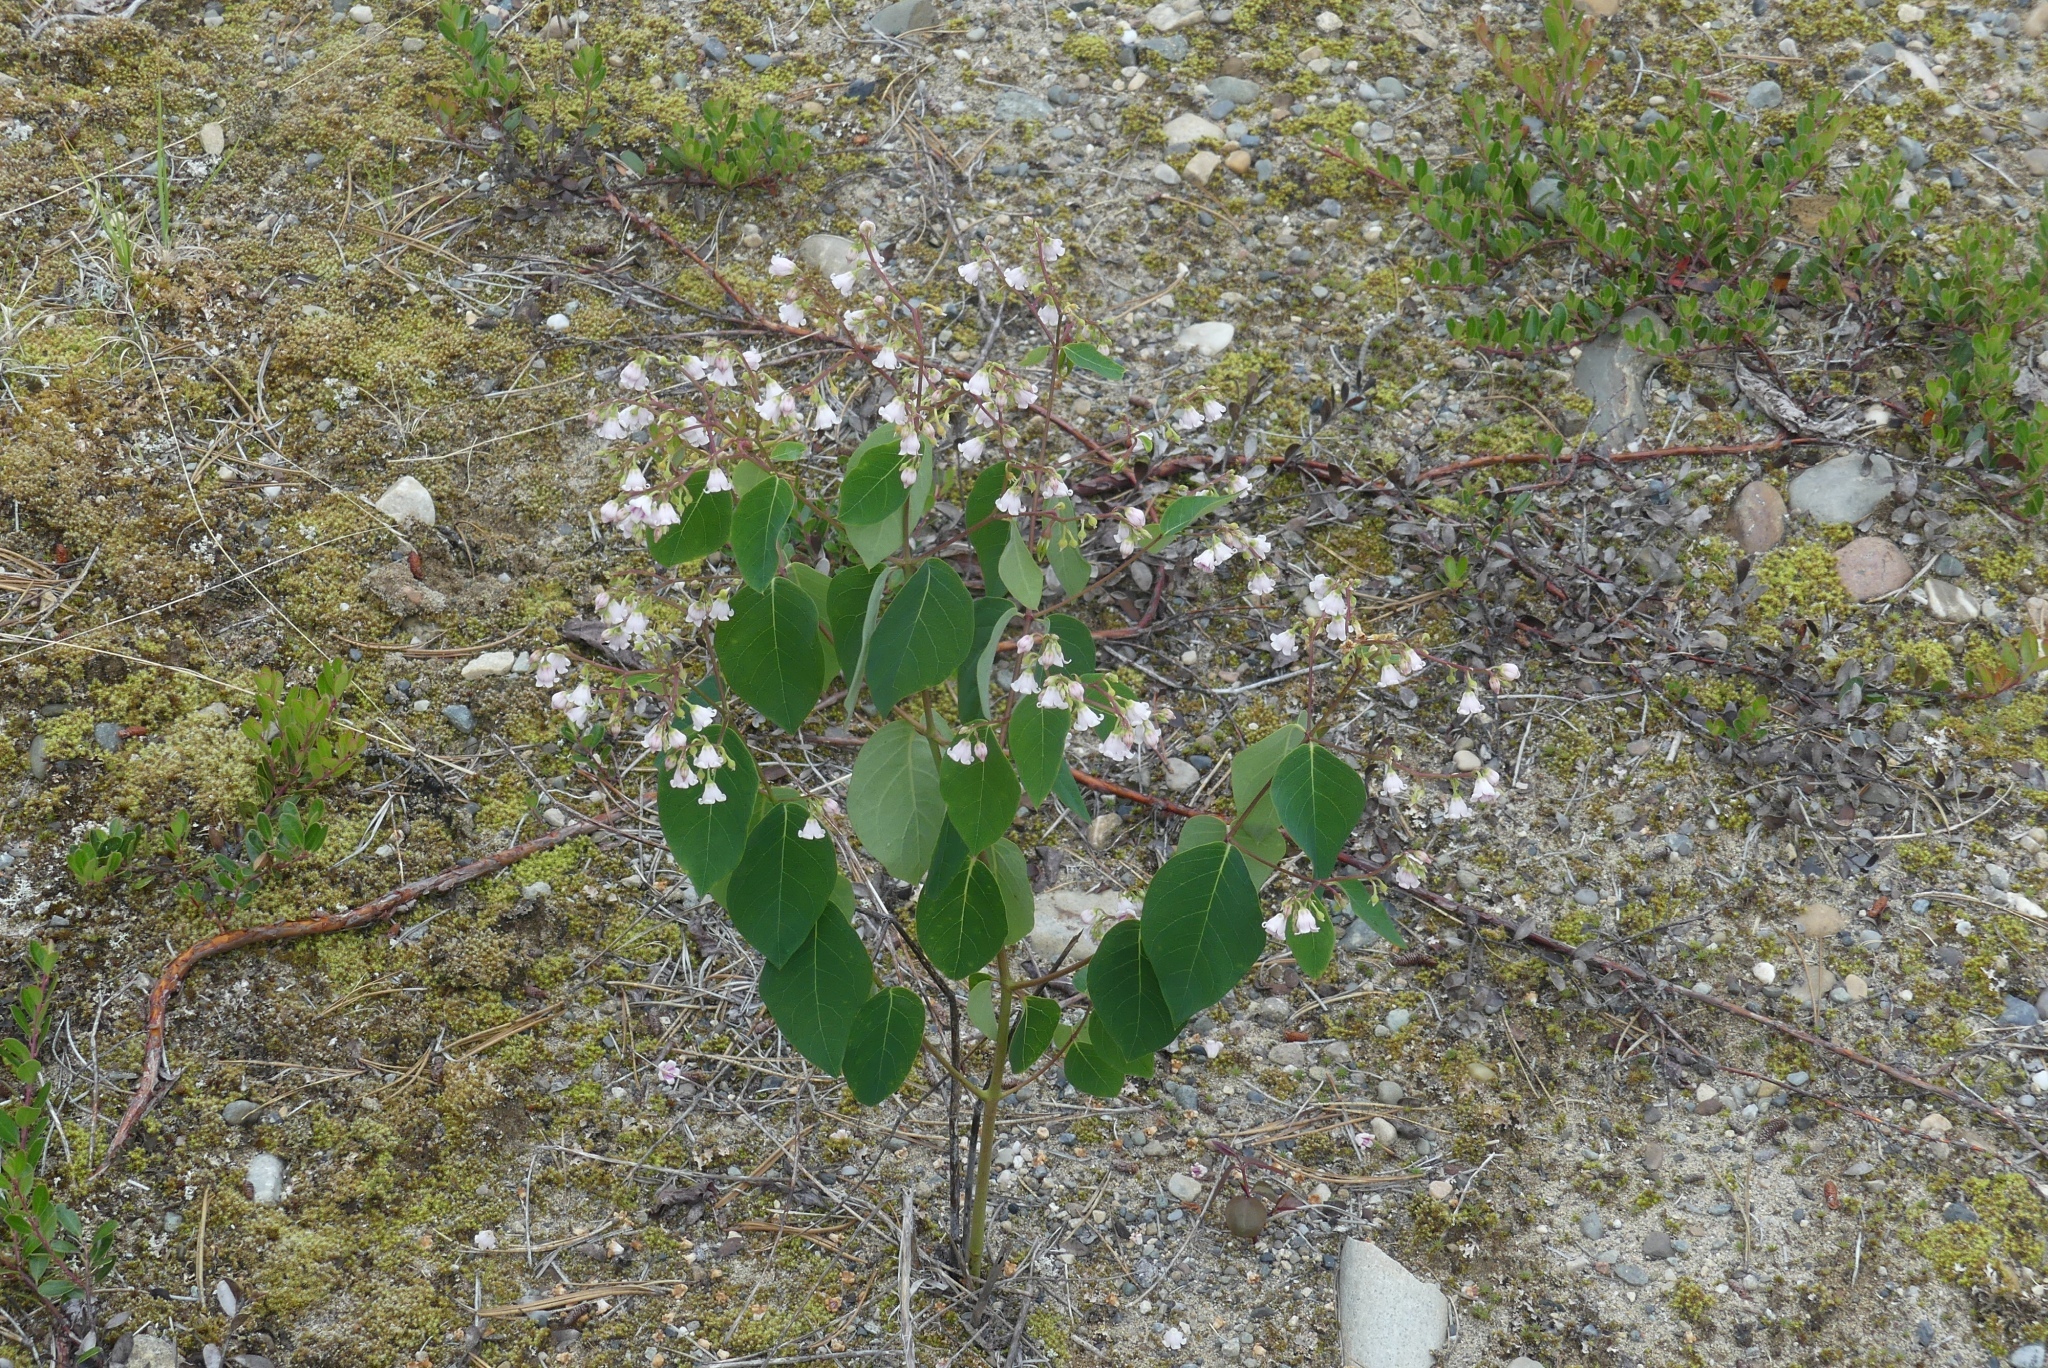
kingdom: Plantae
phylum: Tracheophyta
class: Magnoliopsida
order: Gentianales
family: Apocynaceae
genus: Apocynum
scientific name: Apocynum androsaemifolium
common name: Spreading dogbane
